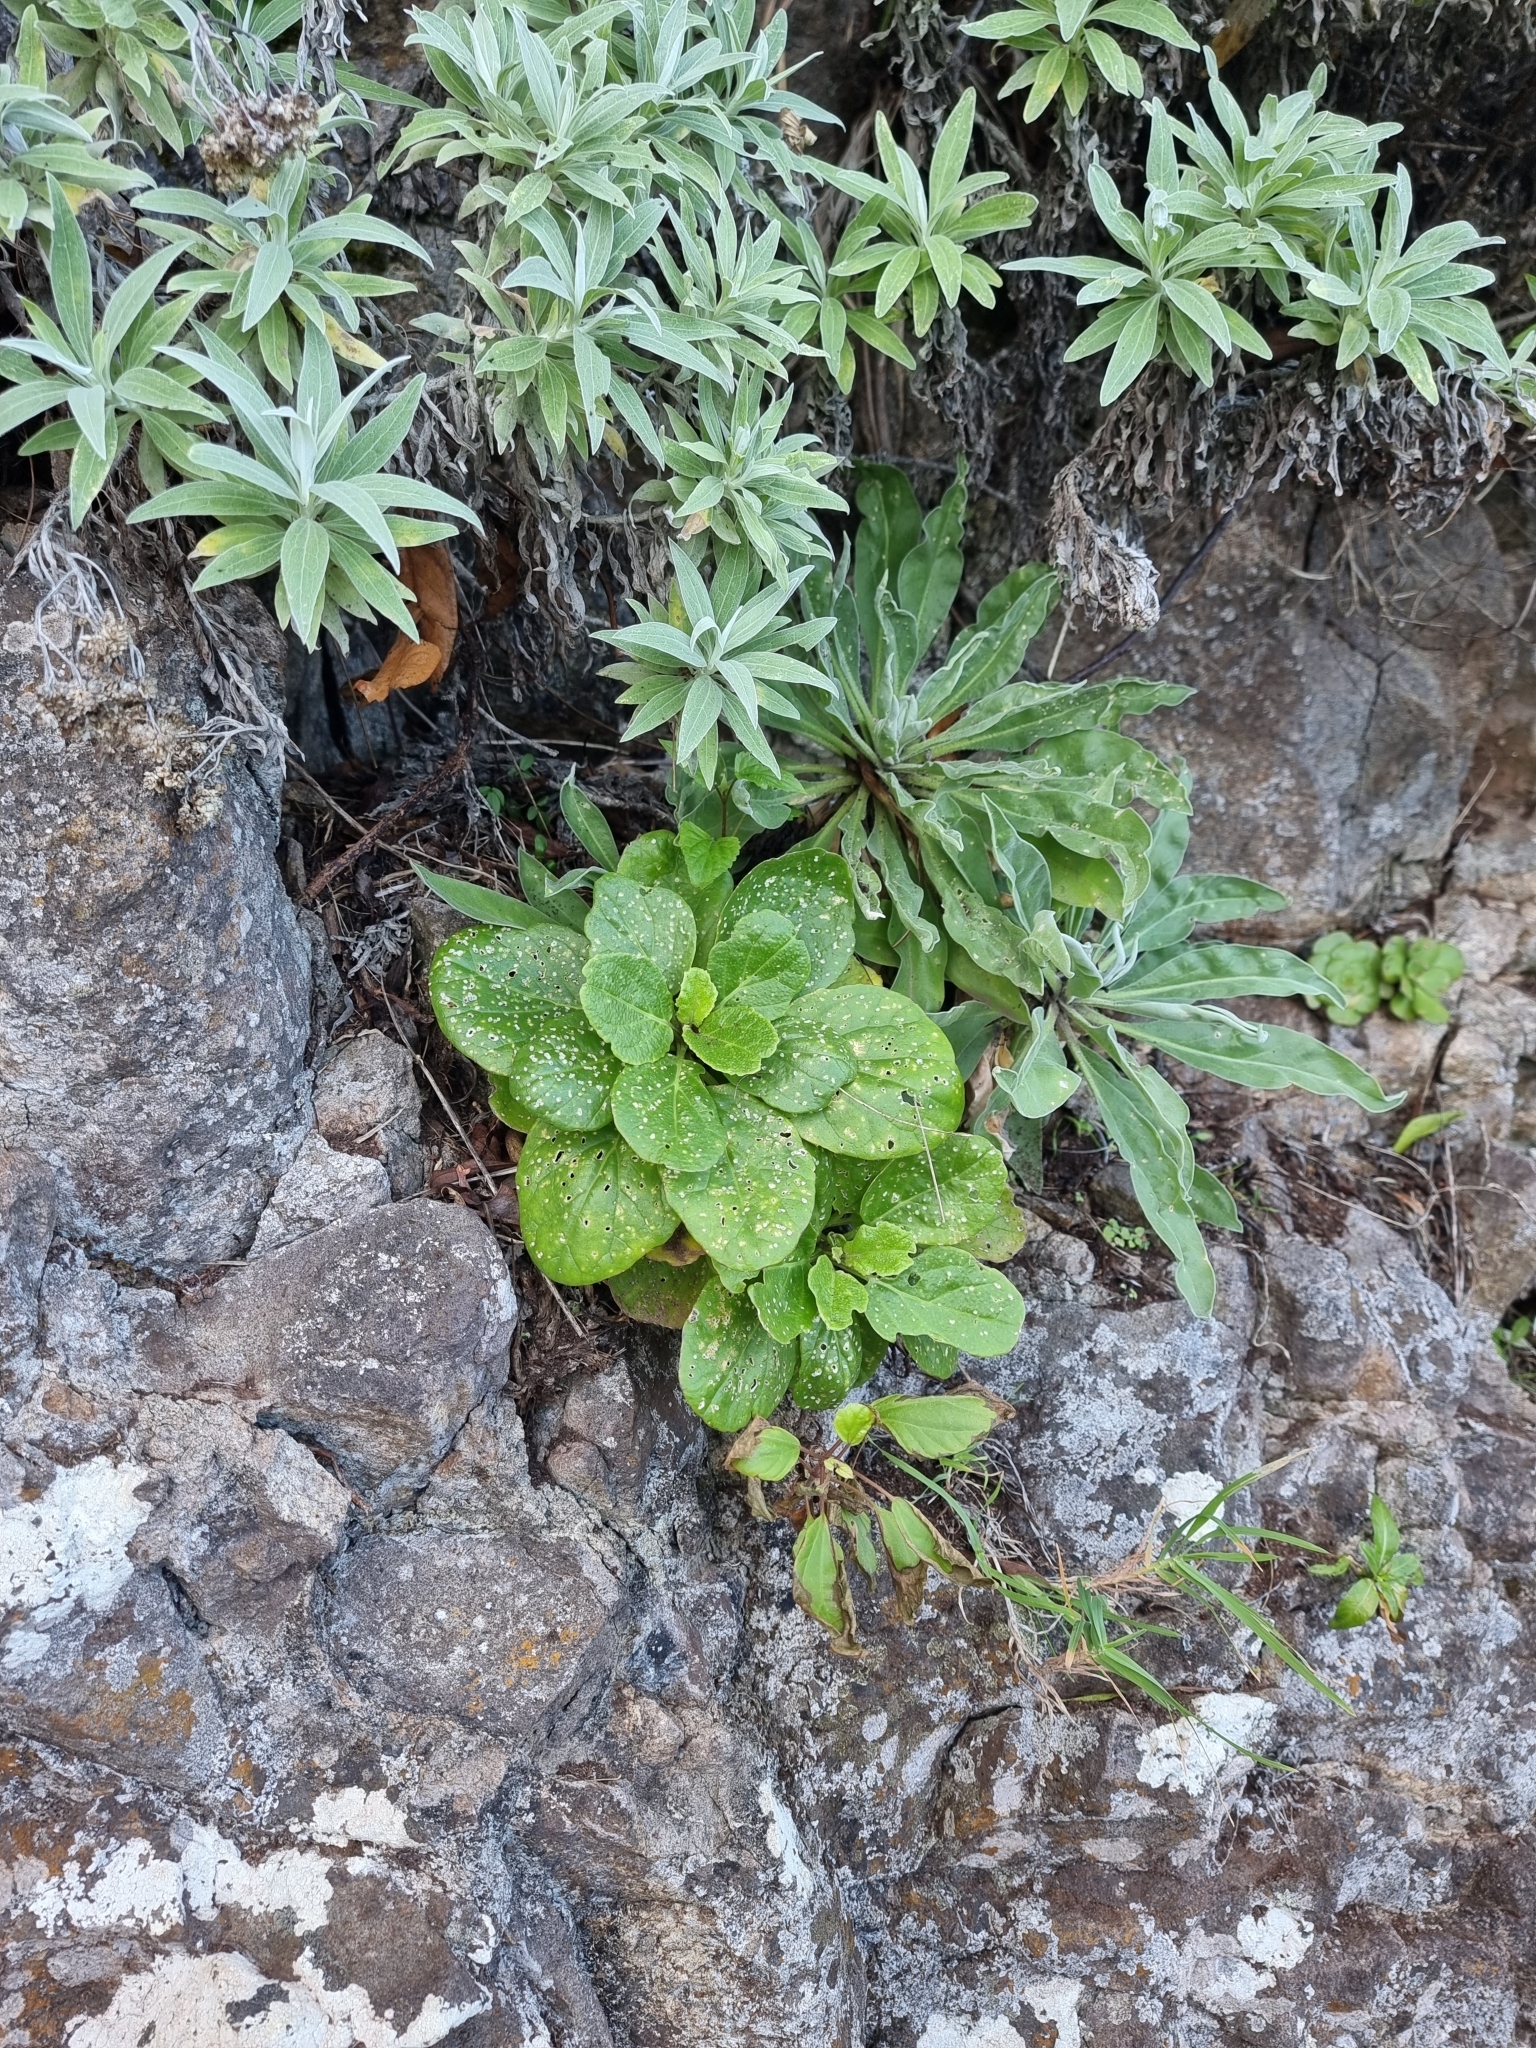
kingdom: Plantae
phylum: Tracheophyta
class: Magnoliopsida
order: Brassicales
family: Brassicaceae
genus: Sinapidendron
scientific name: Sinapidendron rupestre
